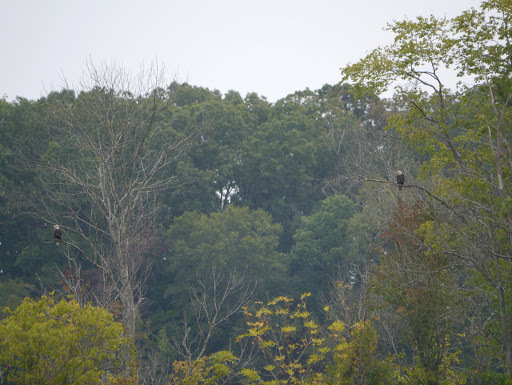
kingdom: Animalia
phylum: Chordata
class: Aves
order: Accipitriformes
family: Accipitridae
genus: Haliaeetus
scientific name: Haliaeetus leucocephalus
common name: Bald eagle
